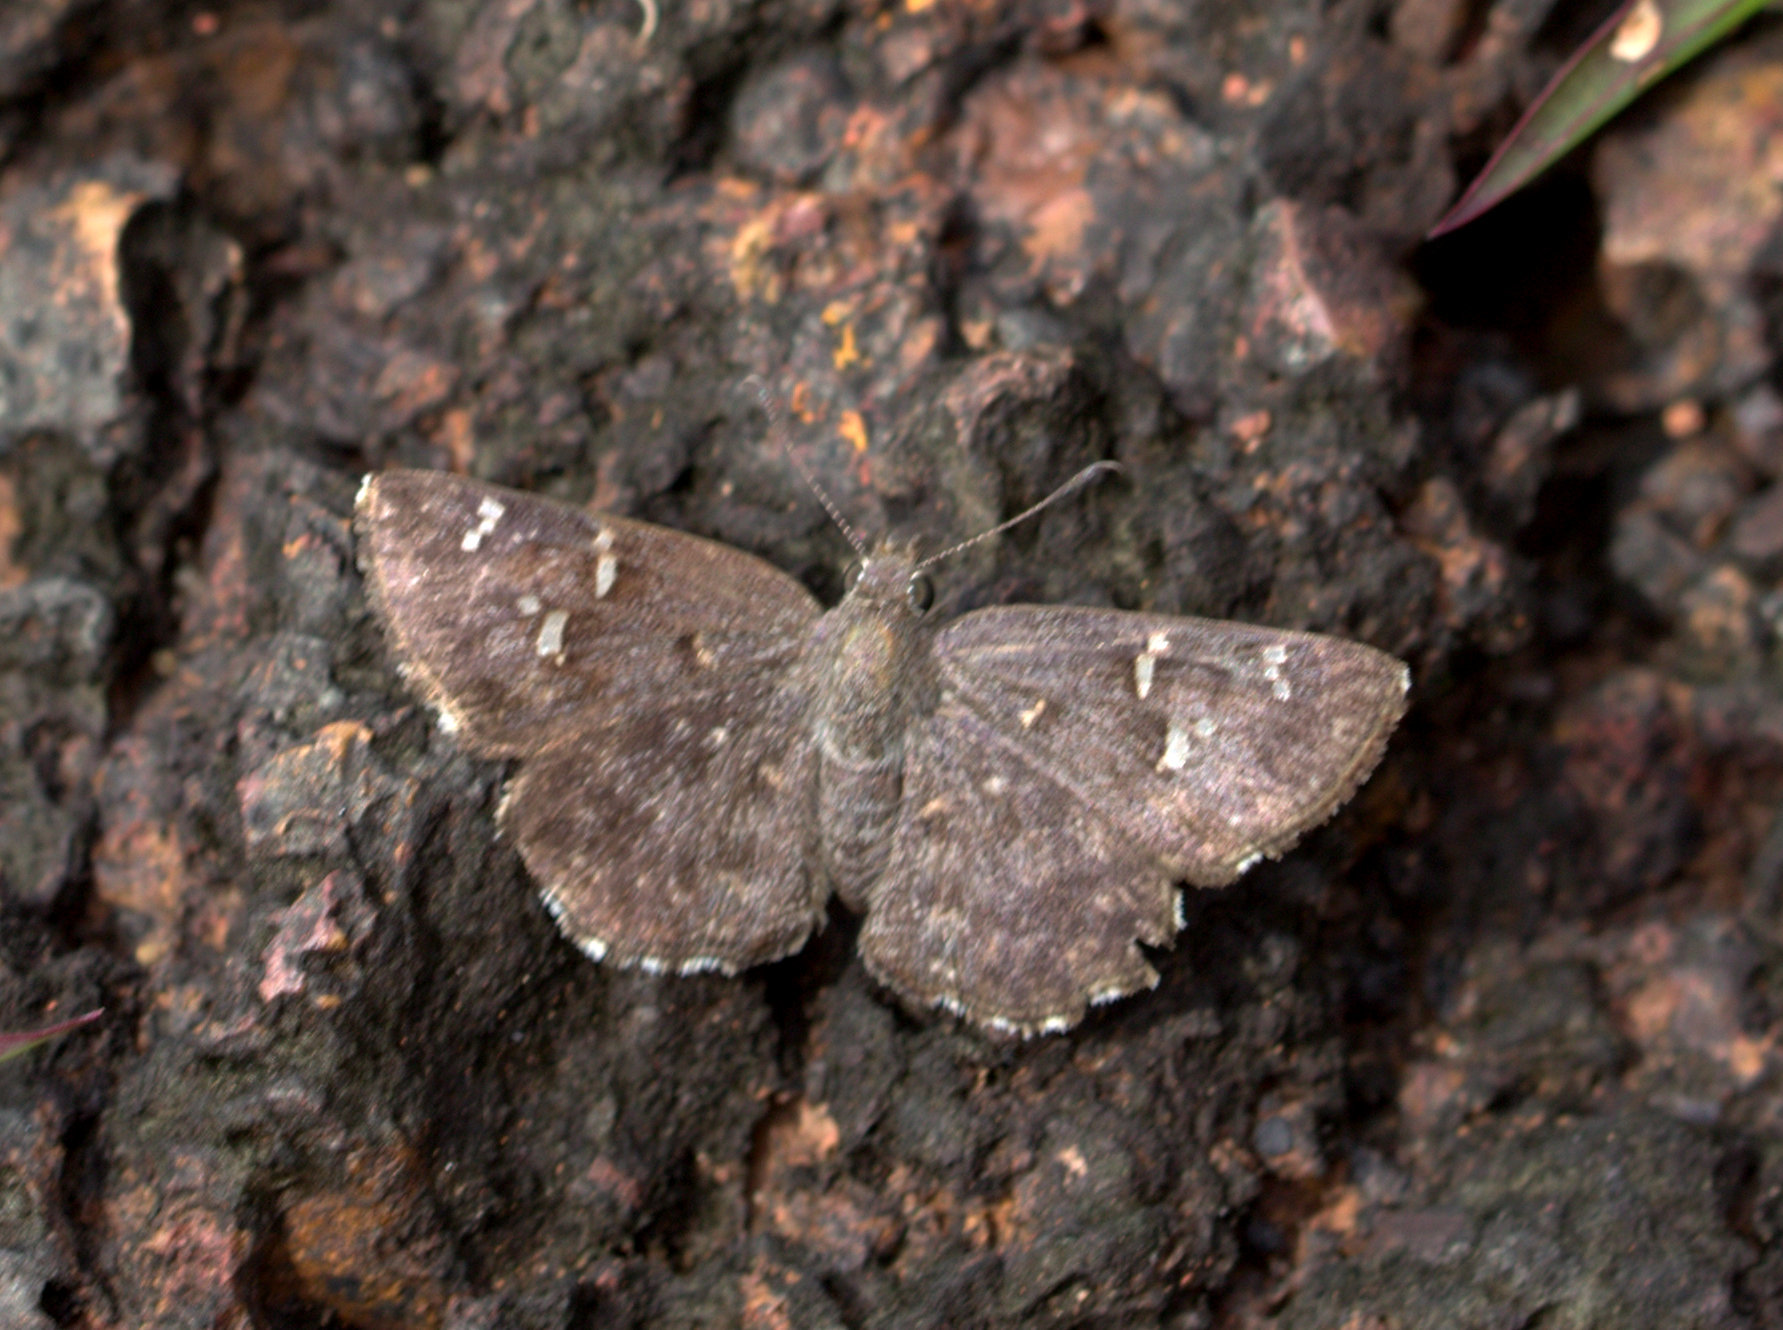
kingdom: Animalia
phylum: Arthropoda
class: Insecta
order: Lepidoptera
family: Hesperiidae
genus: Sarangesa
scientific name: Sarangesa purendra
